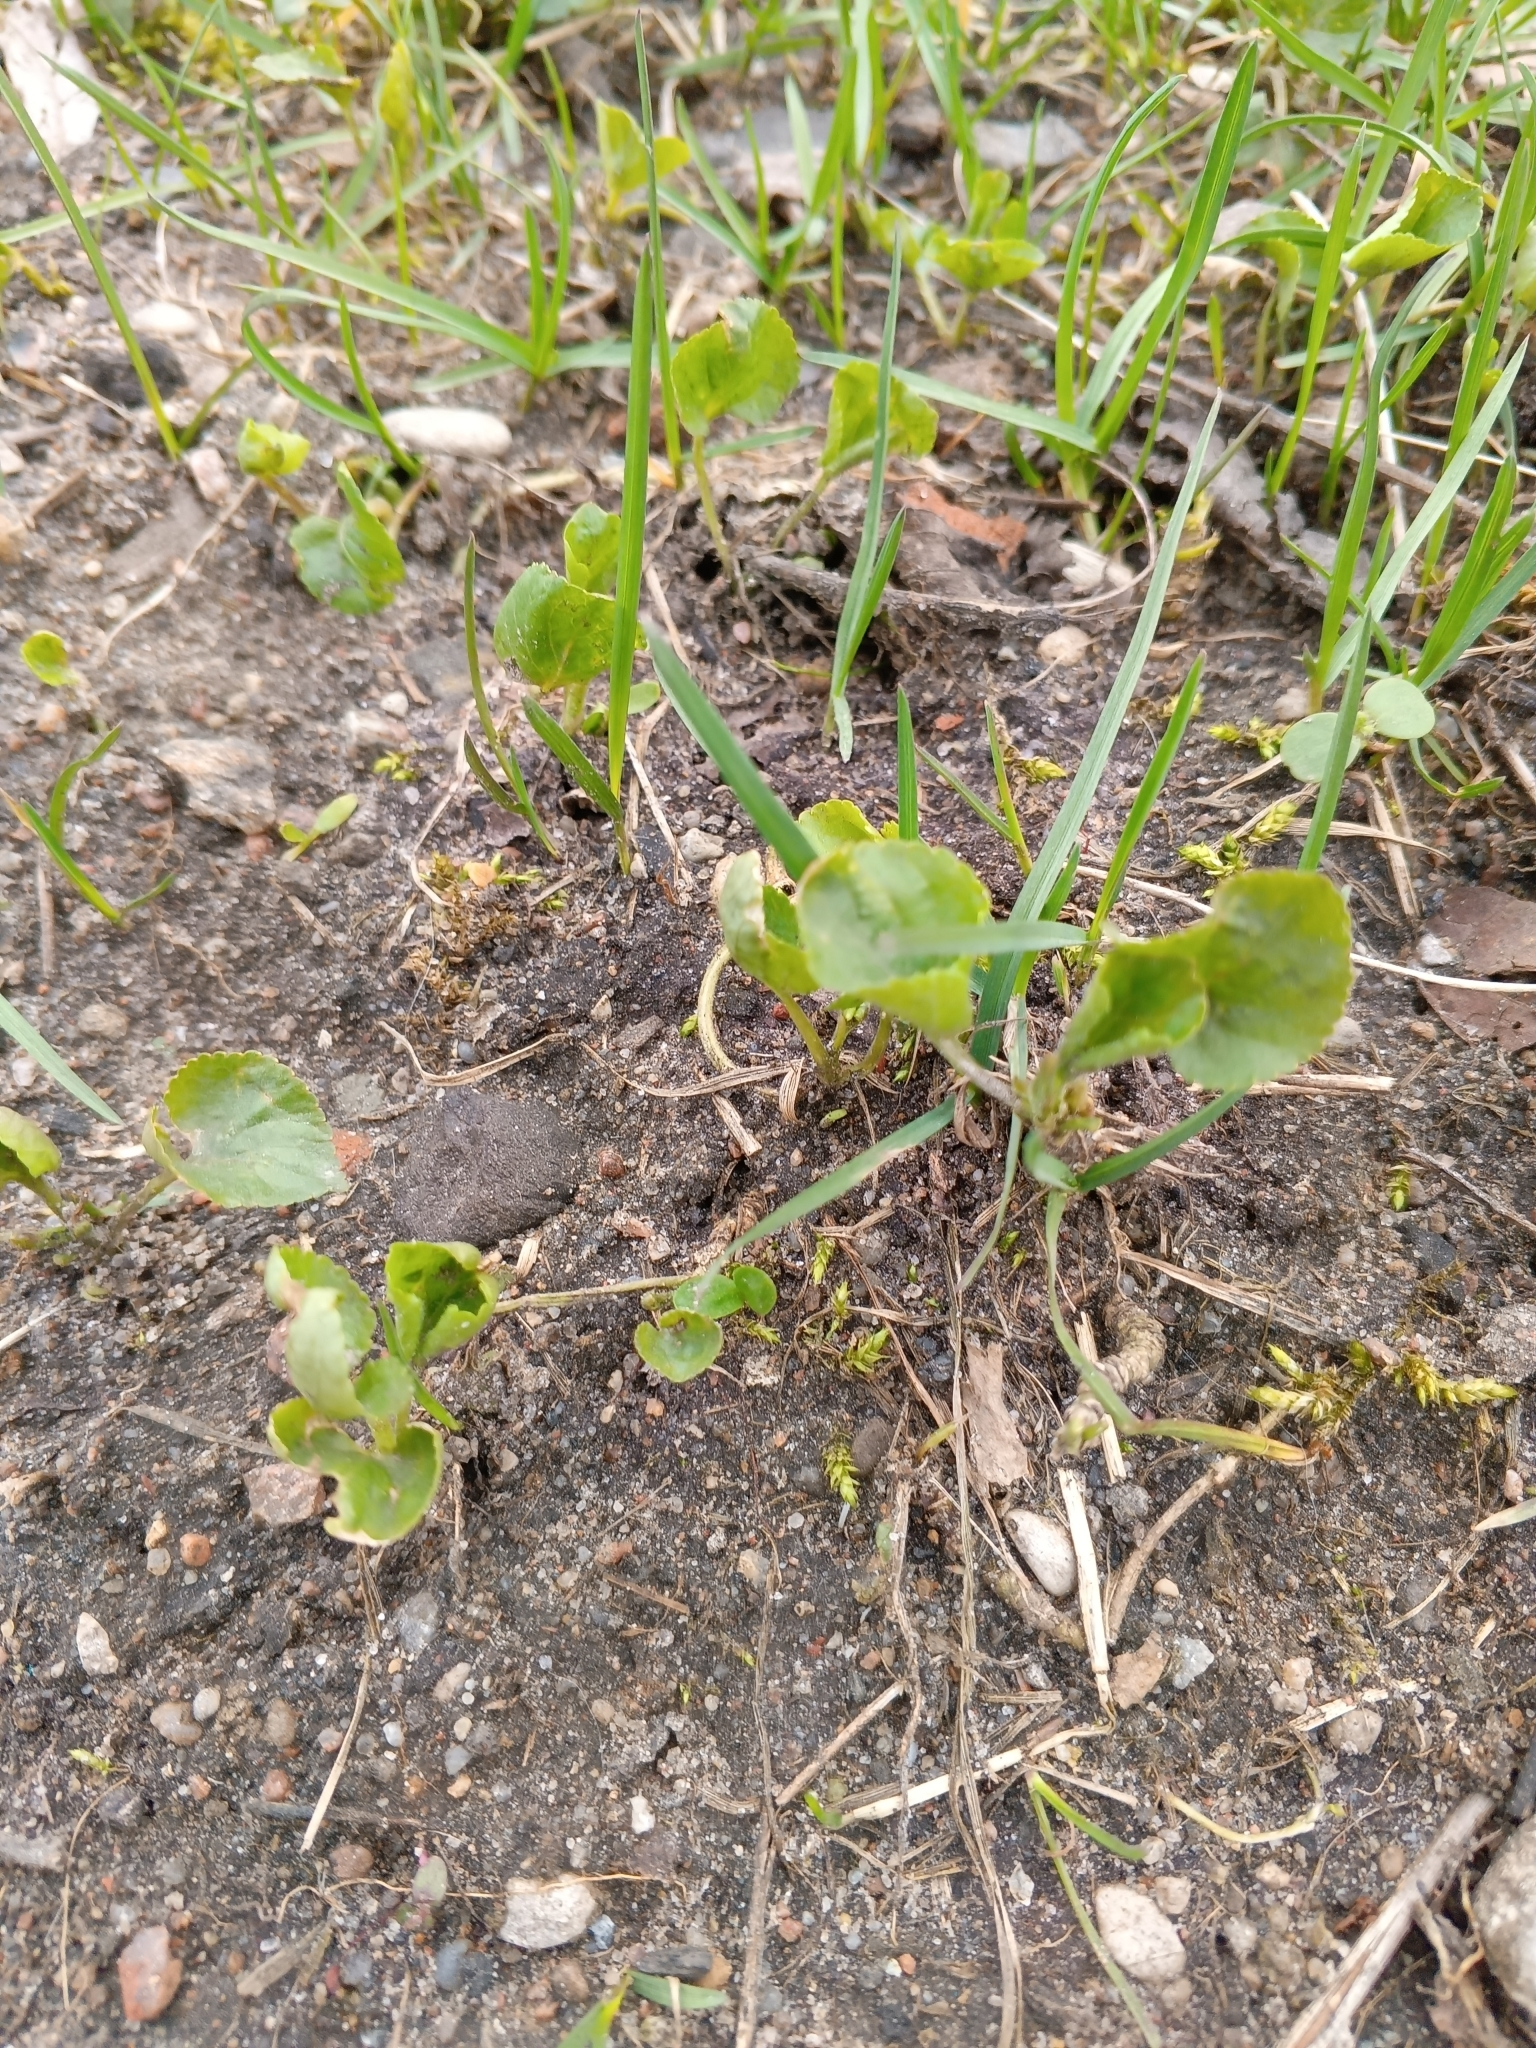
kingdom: Plantae
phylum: Tracheophyta
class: Magnoliopsida
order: Malpighiales
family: Violaceae
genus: Viola
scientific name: Viola odorata
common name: Sweet violet
